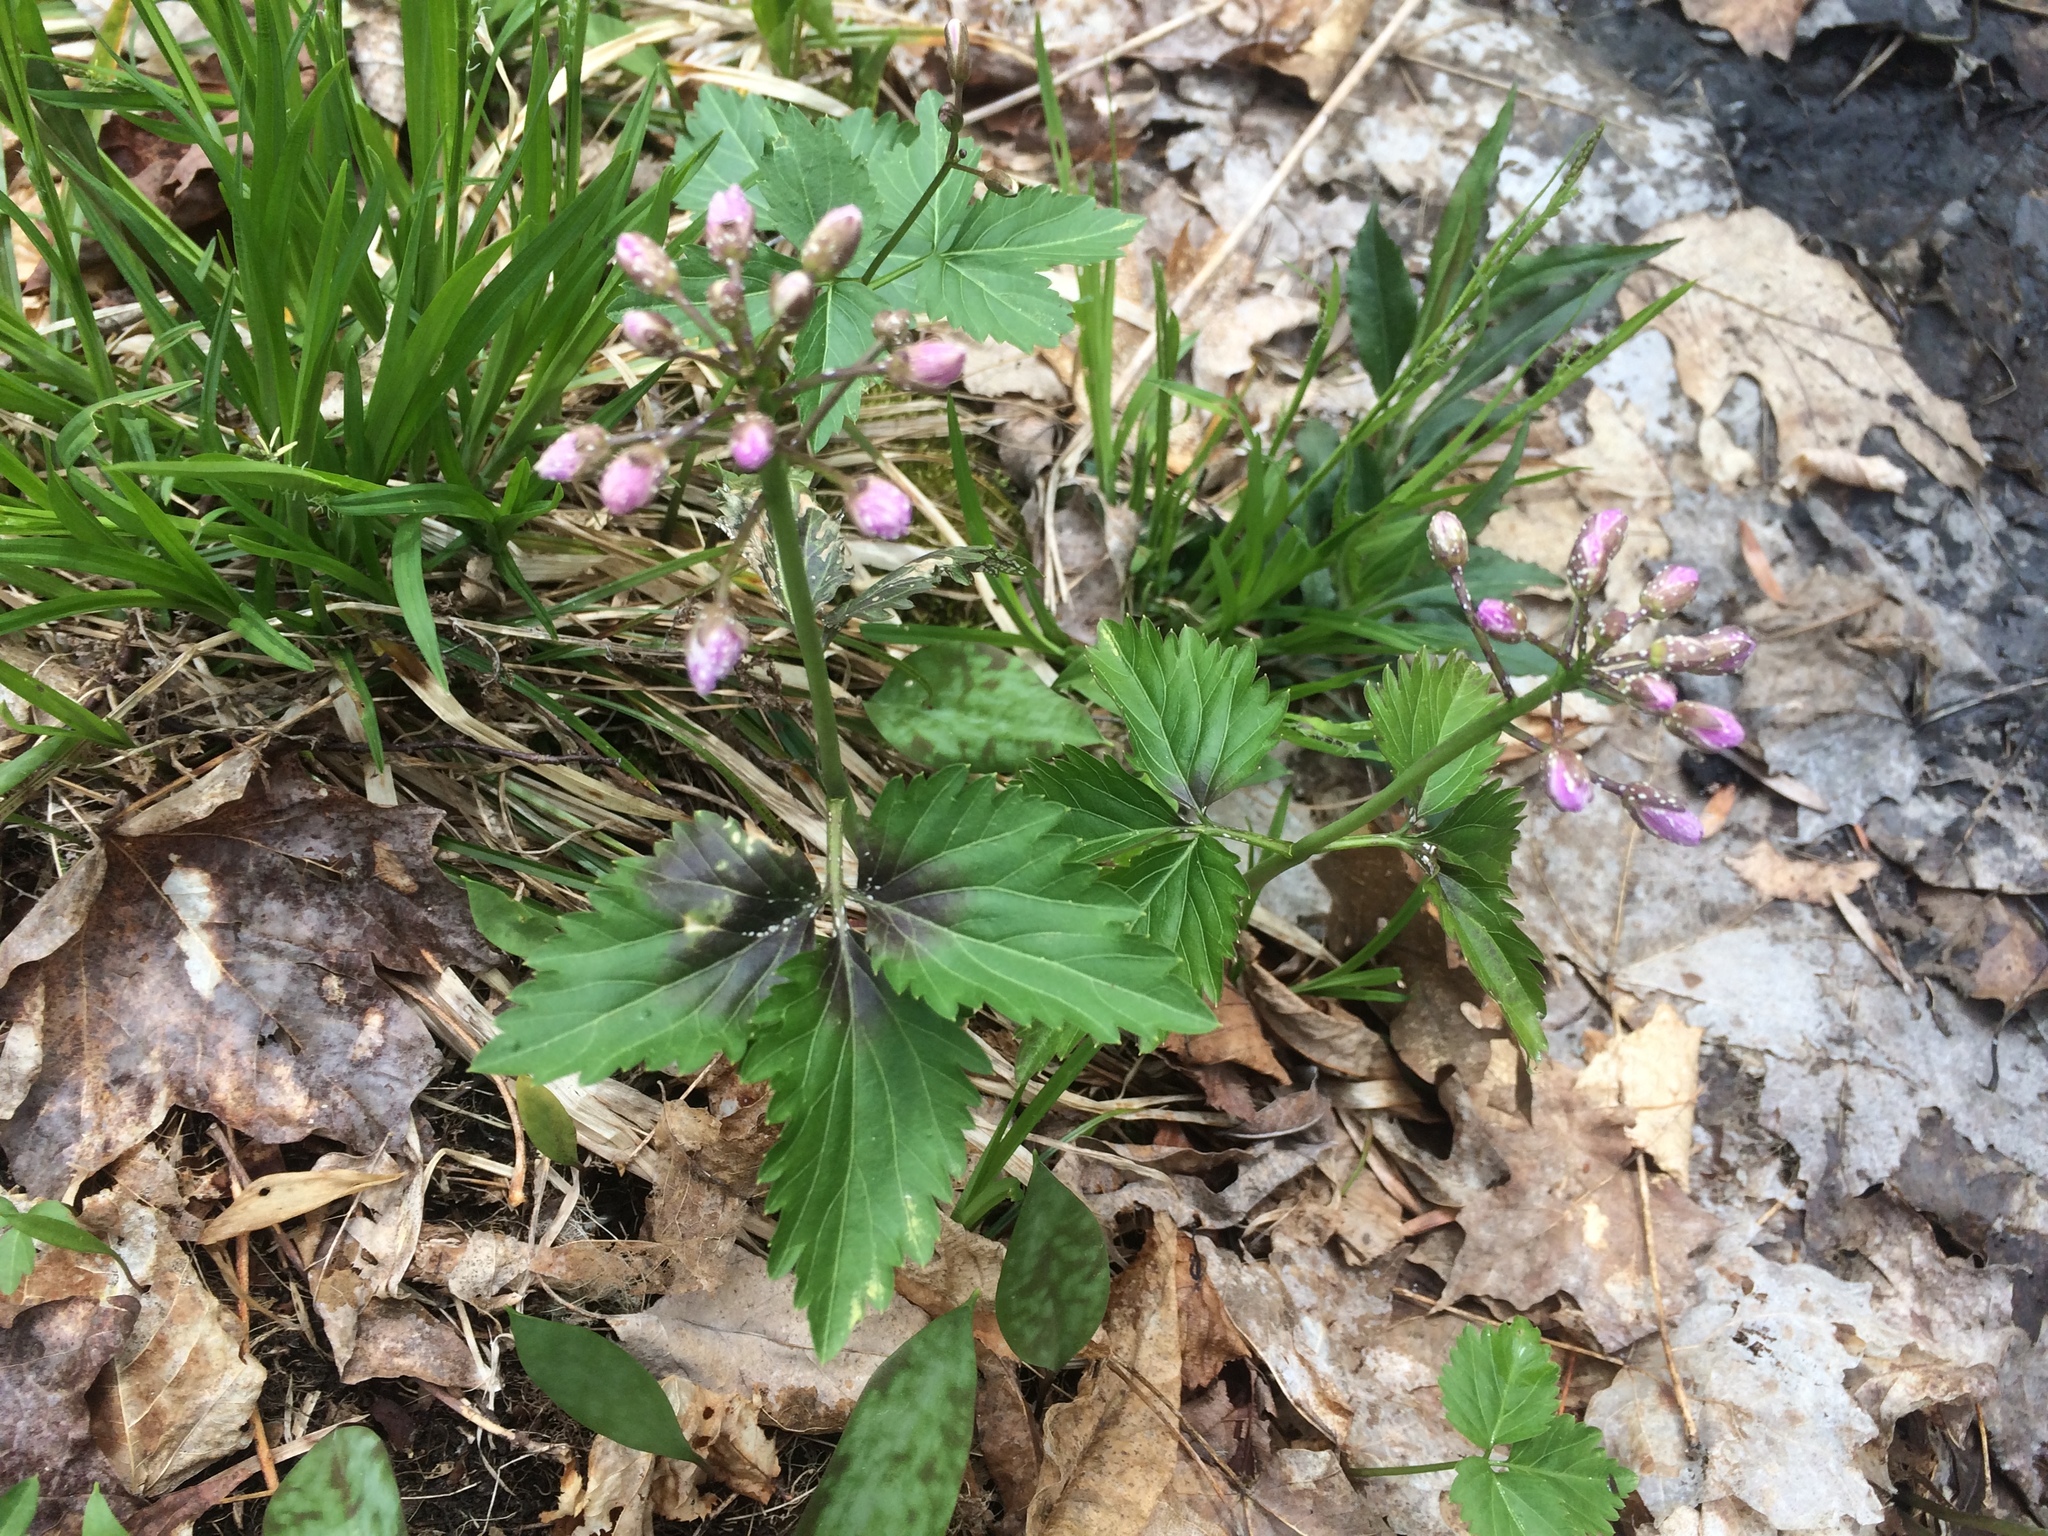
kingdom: Plantae
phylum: Tracheophyta
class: Magnoliopsida
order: Brassicales
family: Brassicaceae
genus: Cardamine
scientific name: Cardamine diphylla
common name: Broad-leaved toothwort
